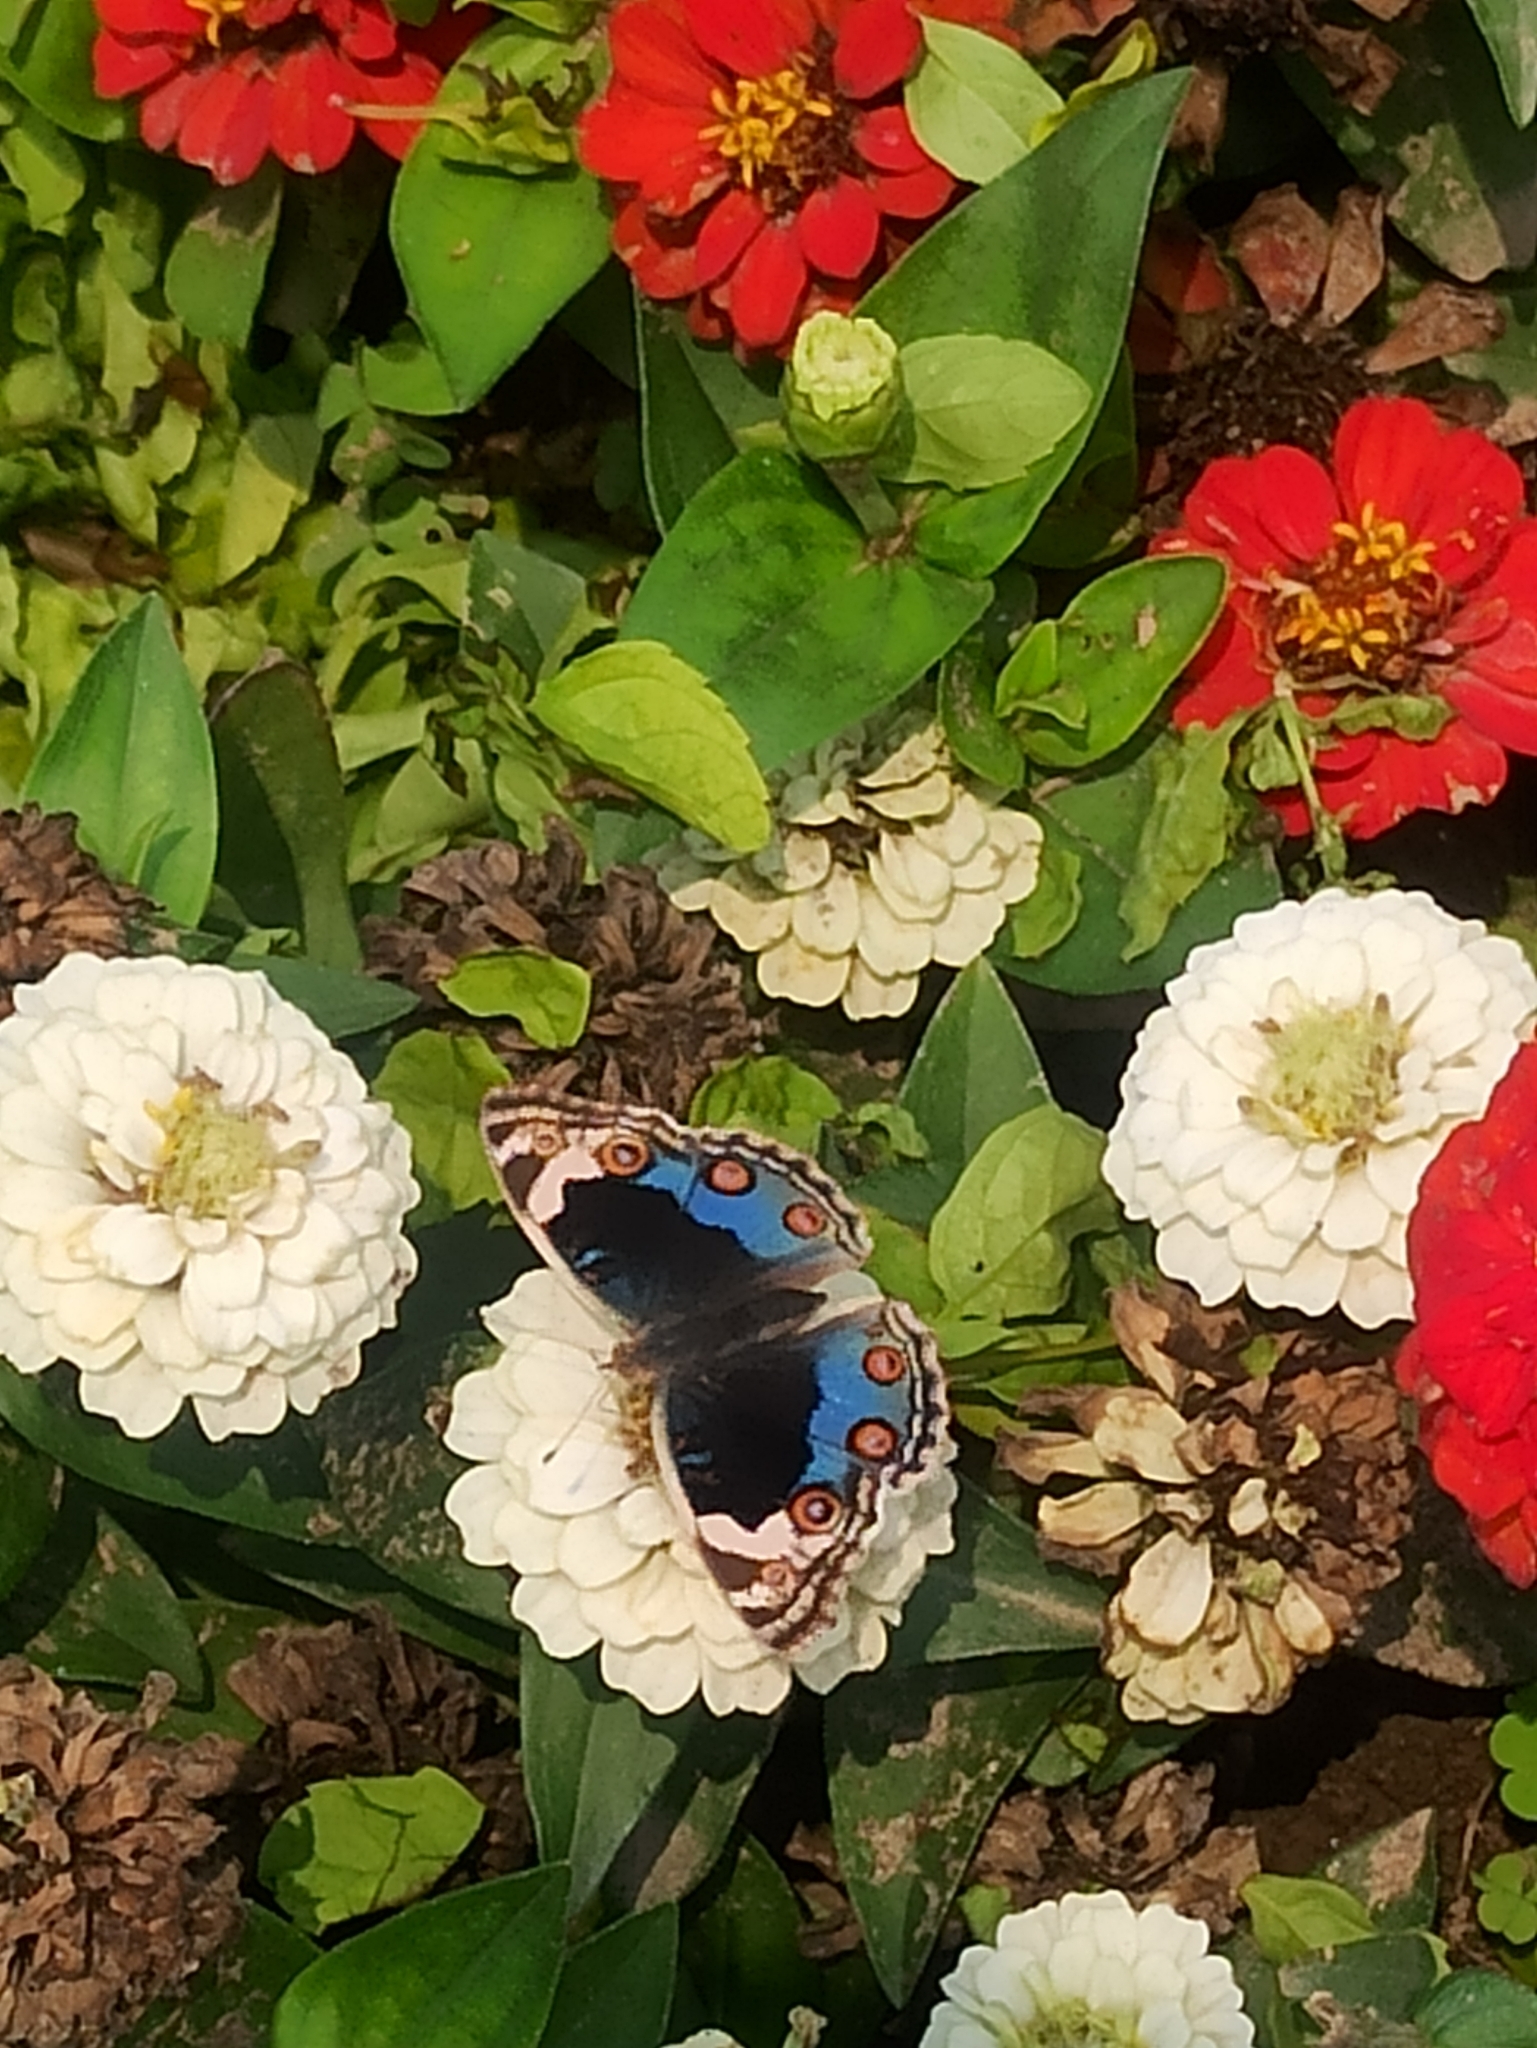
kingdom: Animalia
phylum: Arthropoda
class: Insecta
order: Lepidoptera
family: Nymphalidae
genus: Junonia
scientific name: Junonia orithya
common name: Blue pansy
